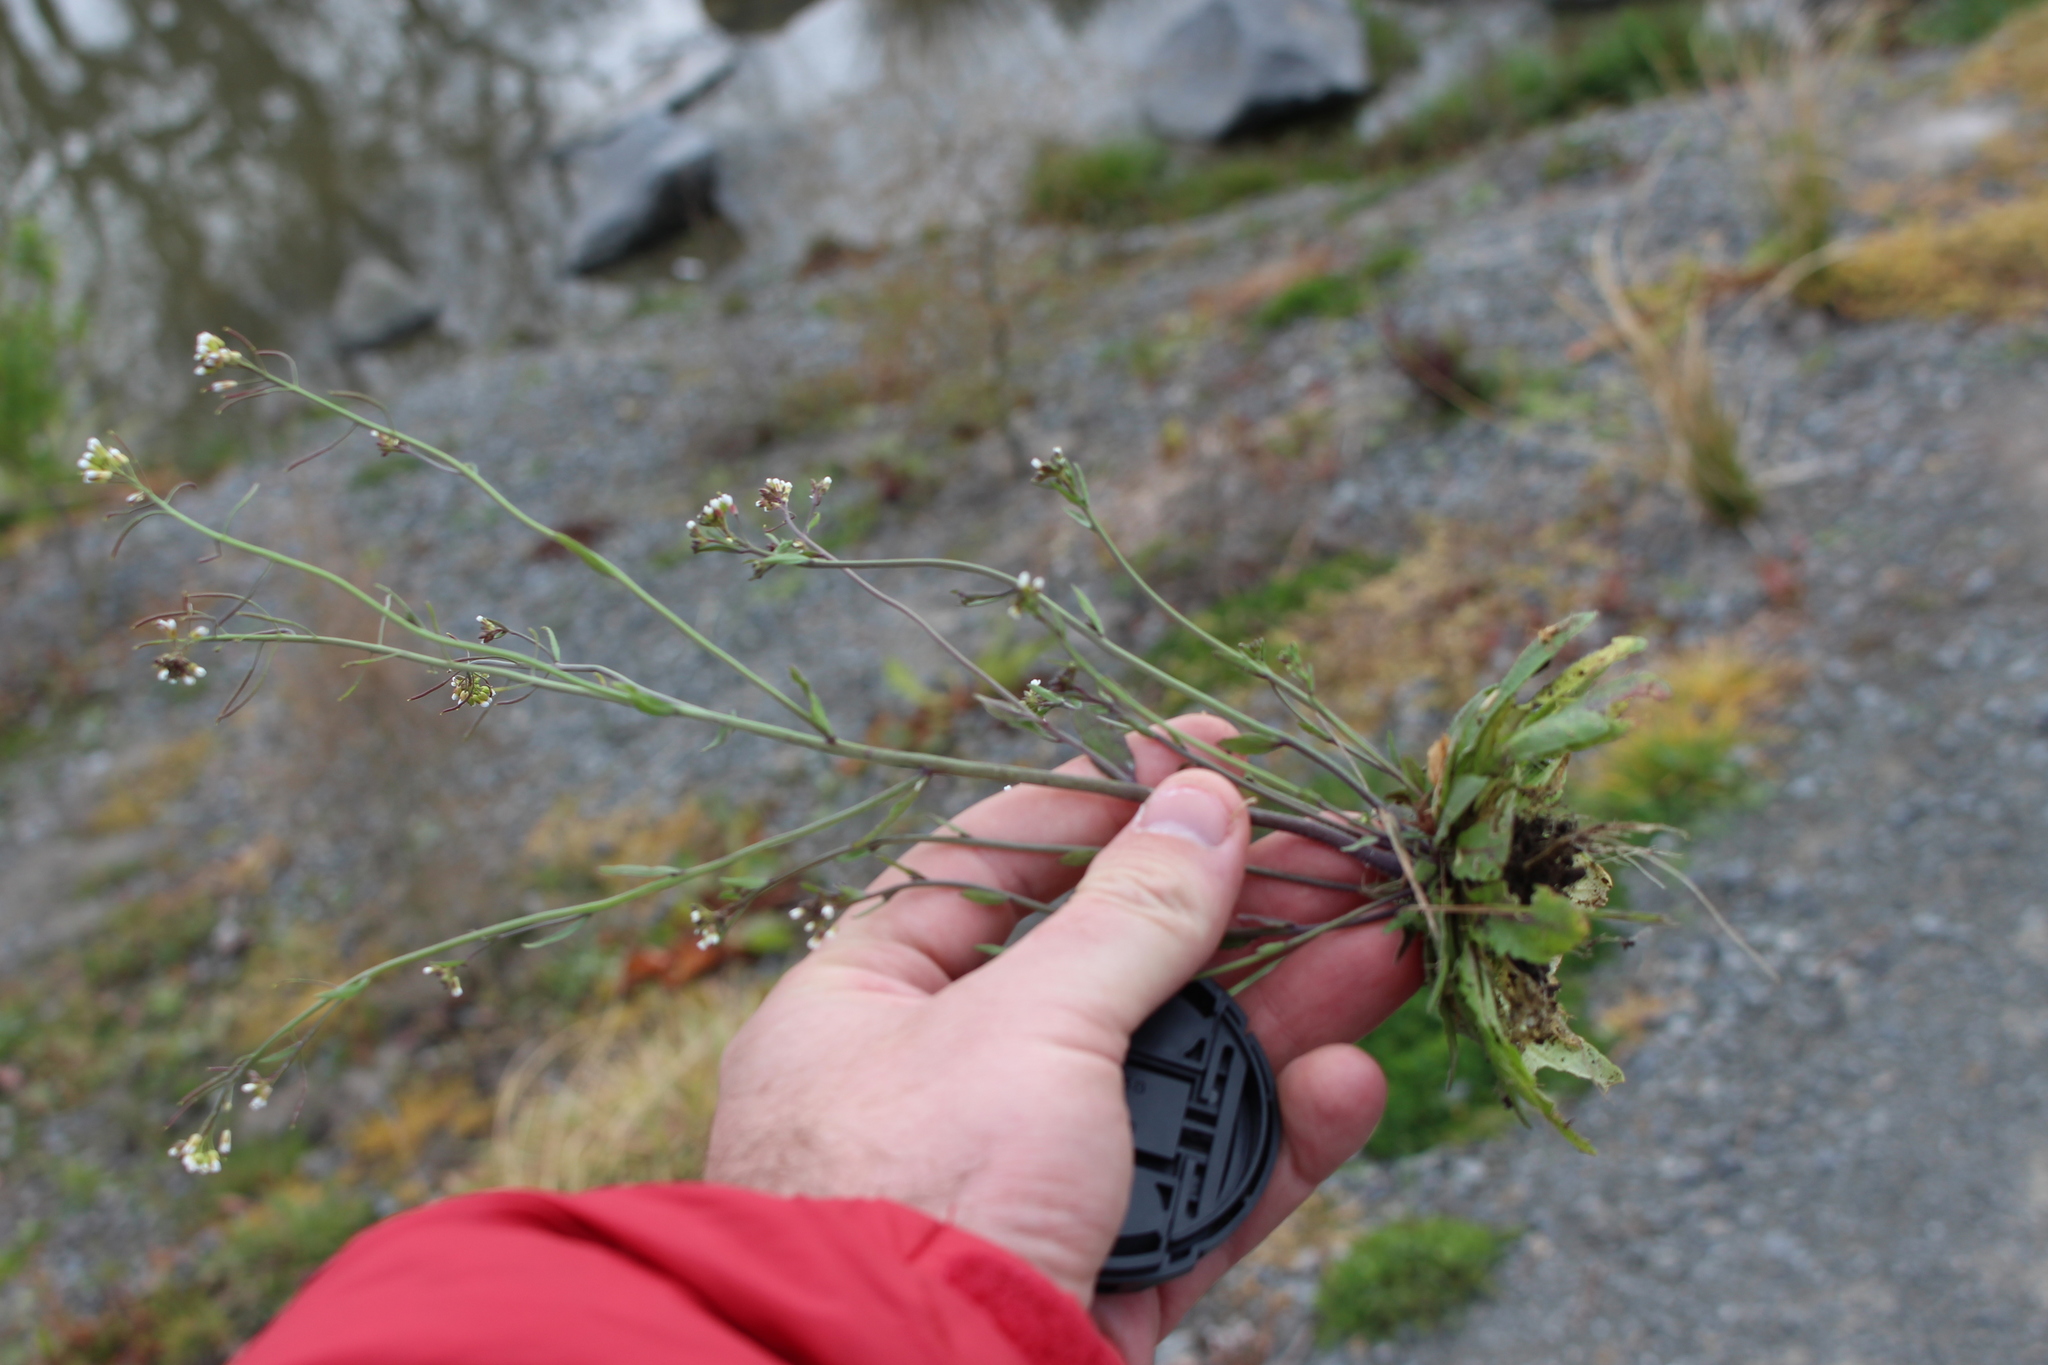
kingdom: Plantae
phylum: Tracheophyta
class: Magnoliopsida
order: Brassicales
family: Brassicaceae
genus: Arabidopsis
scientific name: Arabidopsis thaliana
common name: Thale cress
